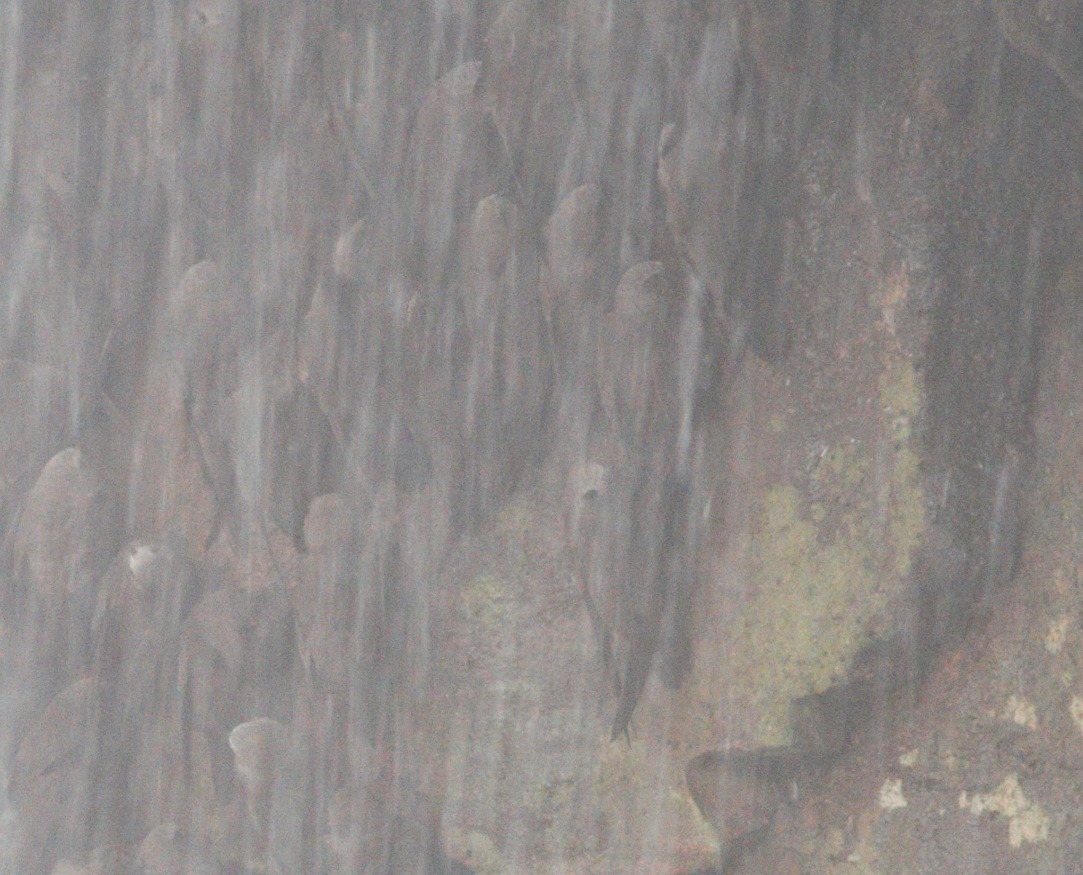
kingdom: Animalia
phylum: Chordata
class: Aves
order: Apodiformes
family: Apodidae
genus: Cypseloides
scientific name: Cypseloides senex
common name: Great dusky swift
